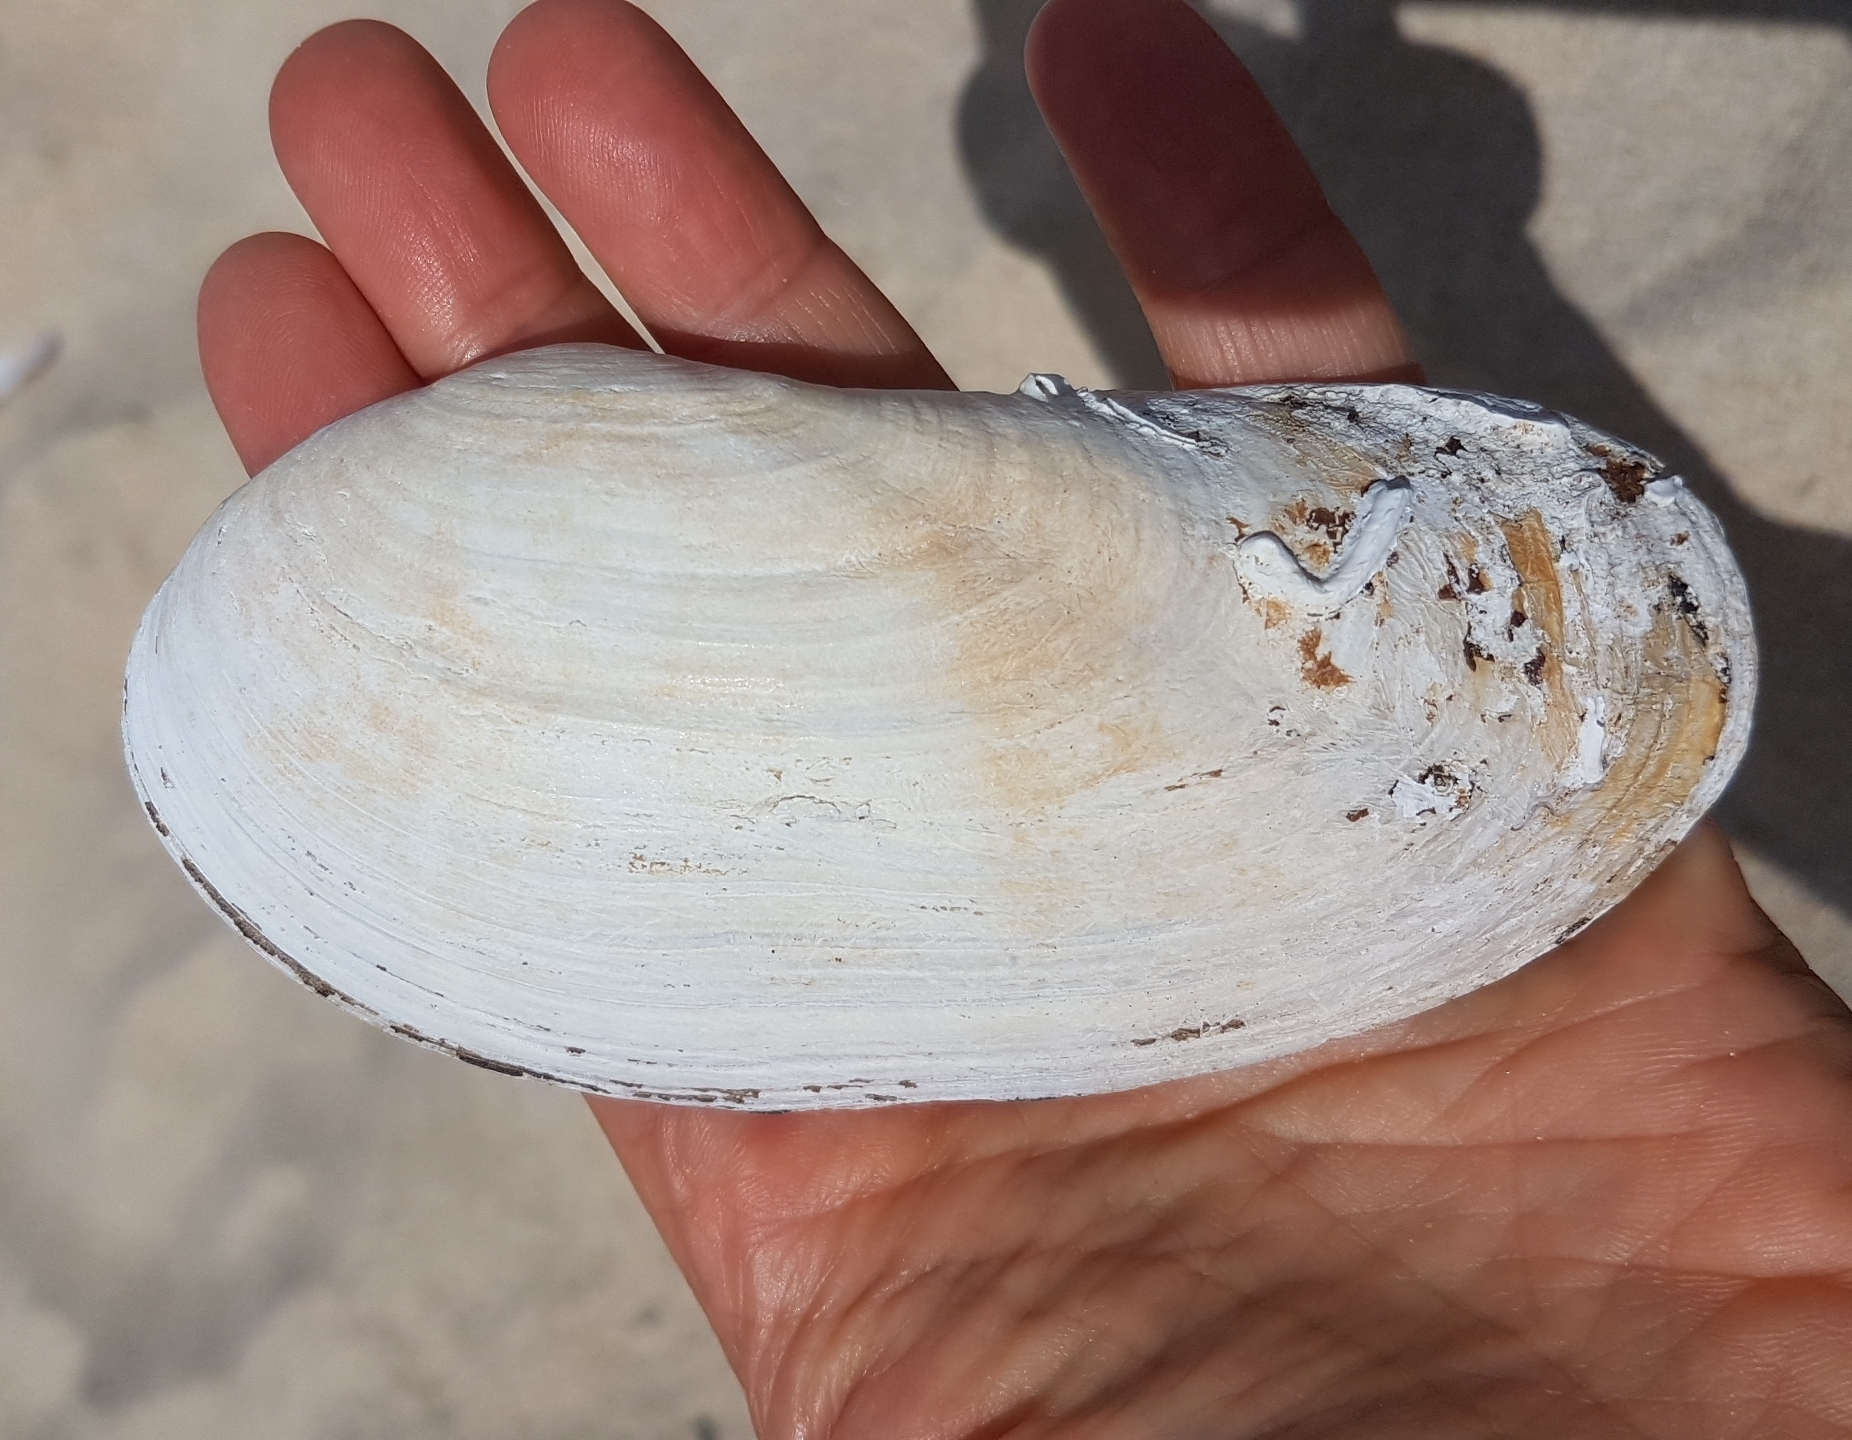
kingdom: Animalia
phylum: Mollusca
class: Bivalvia
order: Venerida
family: Mactridae
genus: Lutraria
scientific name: Lutraria oblonga
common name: Oblong otter clam
